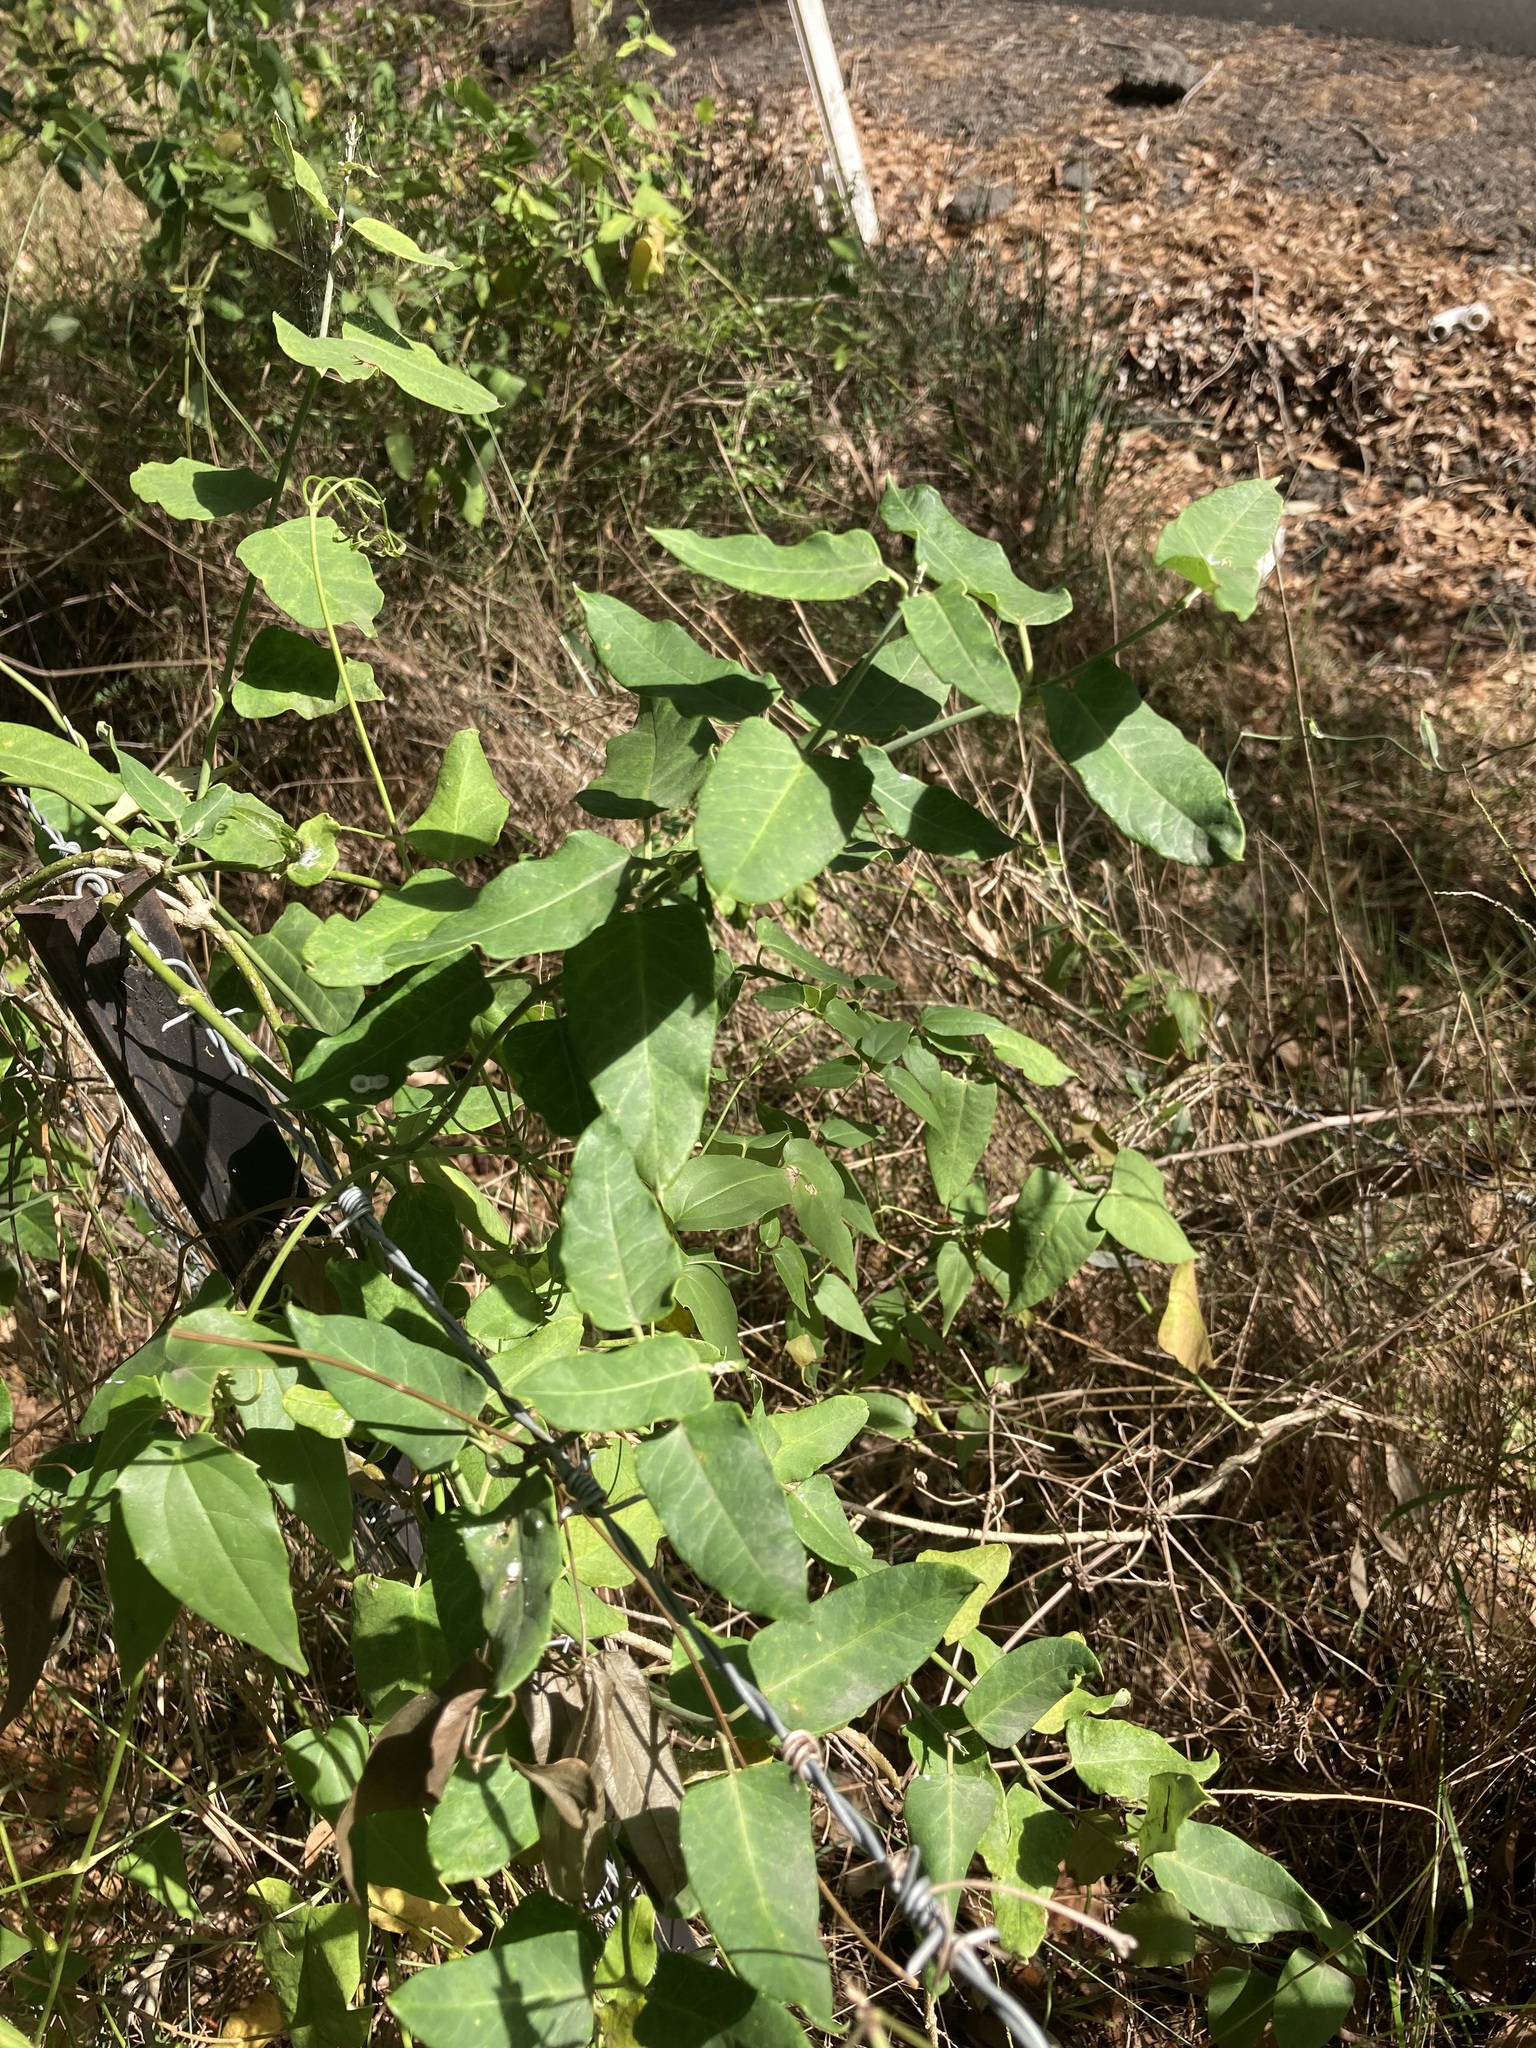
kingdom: Plantae
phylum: Tracheophyta
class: Magnoliopsida
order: Gentianales
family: Apocynaceae
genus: Araujia
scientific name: Araujia sericifera
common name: White bladderflower
